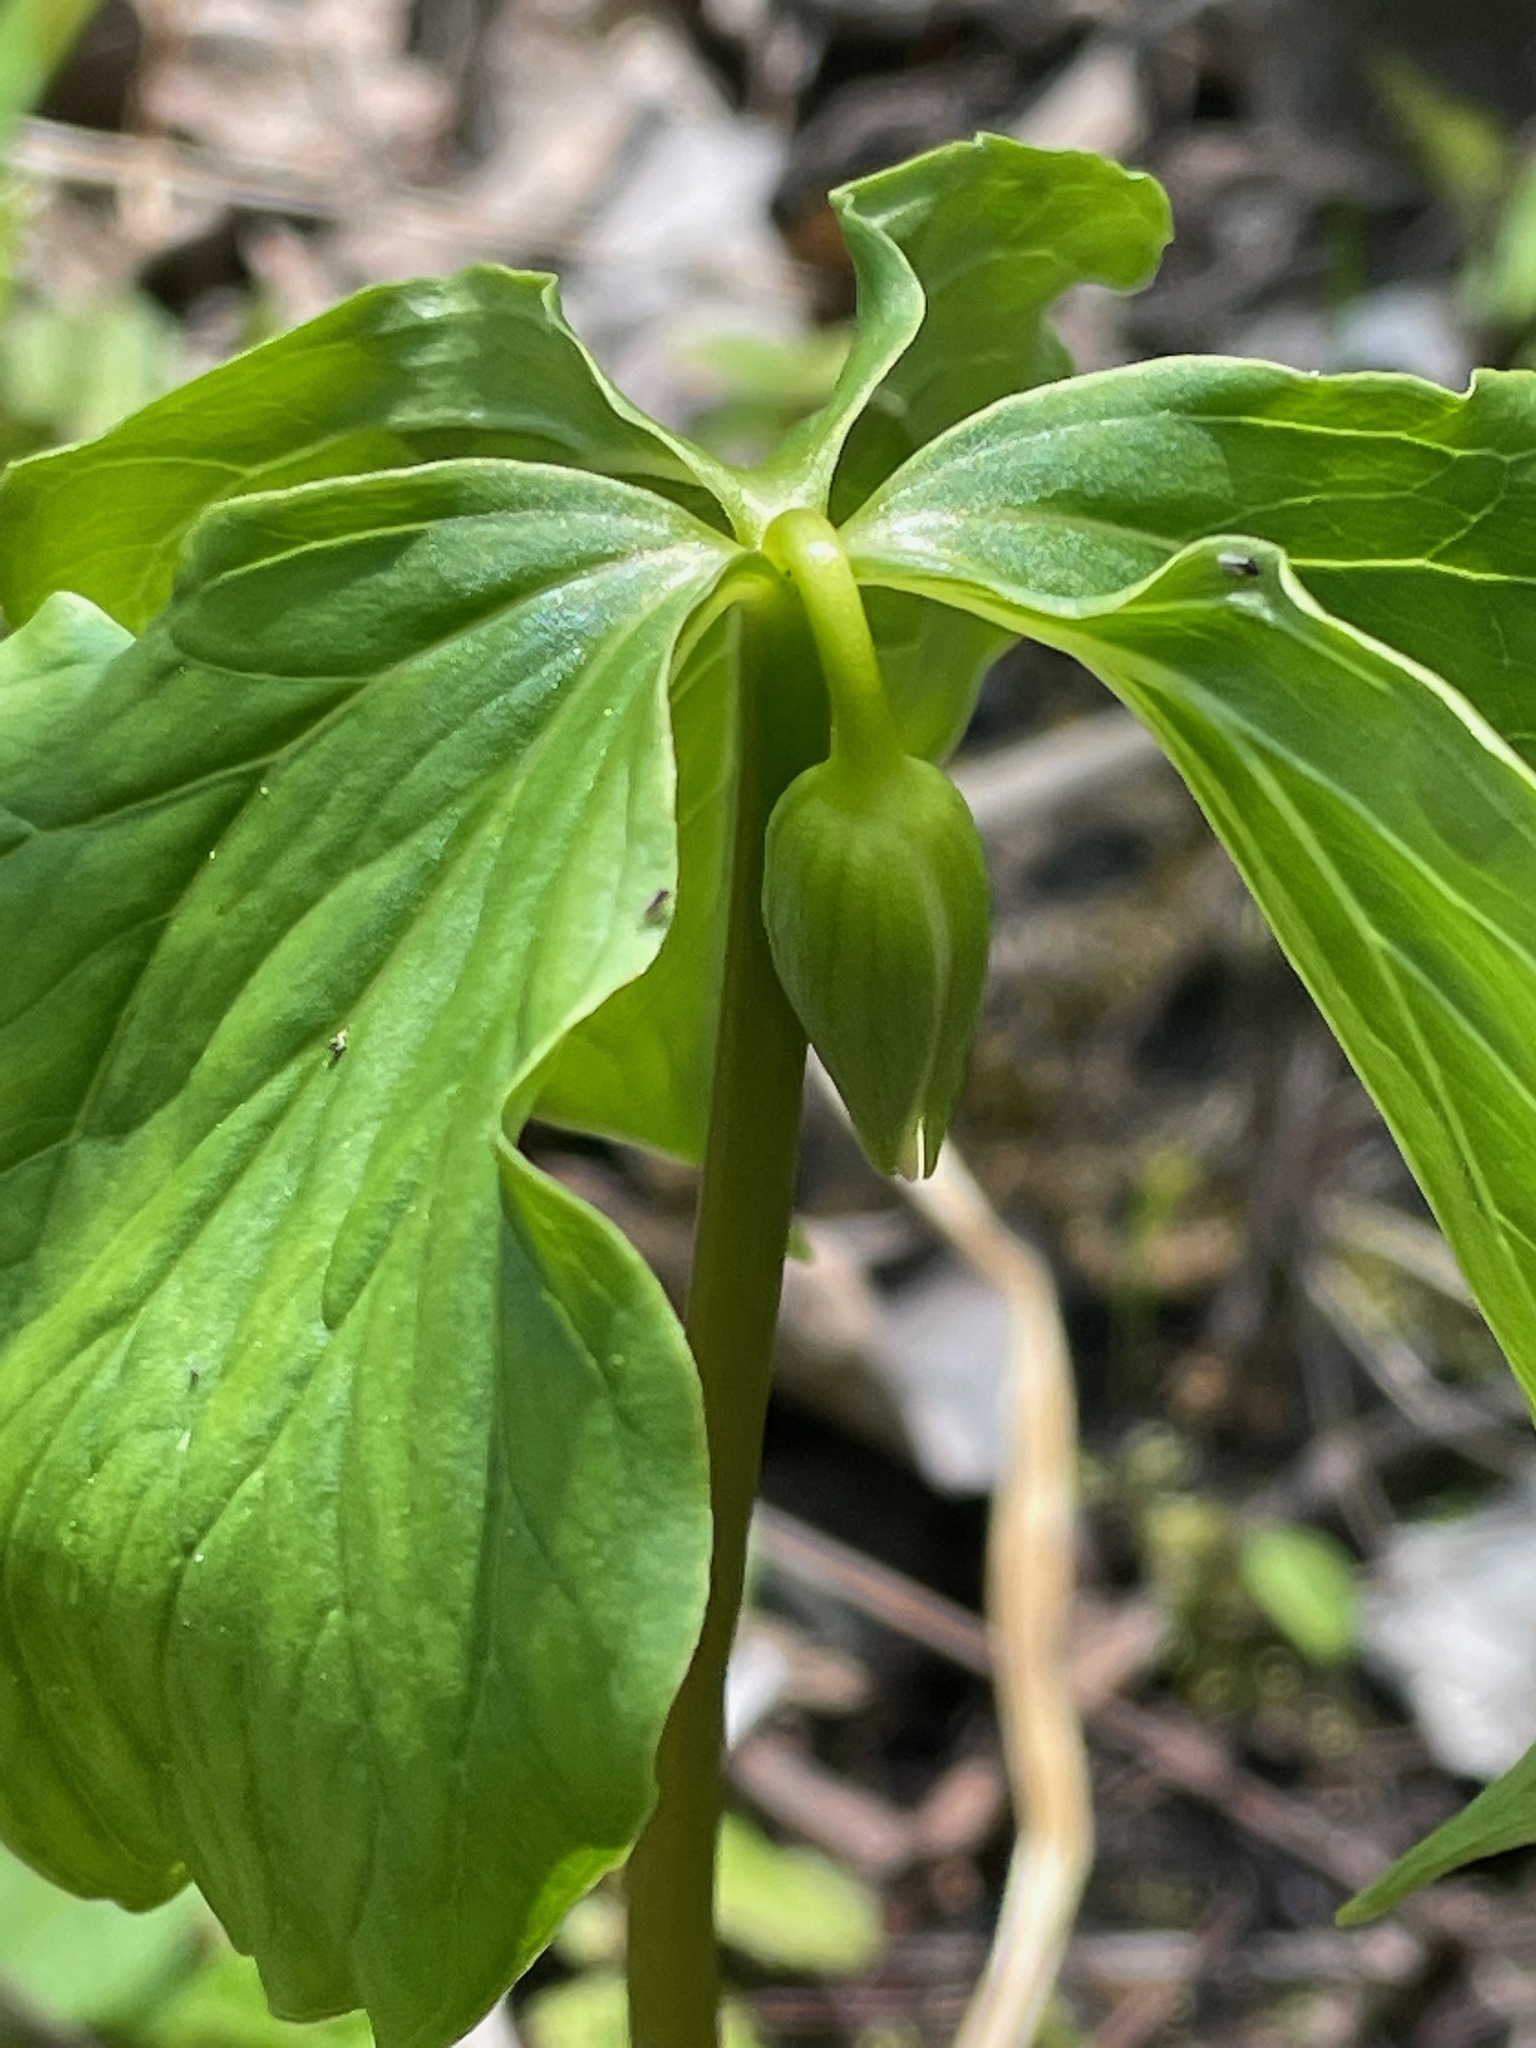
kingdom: Plantae
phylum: Tracheophyta
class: Liliopsida
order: Liliales
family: Melanthiaceae
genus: Trillium
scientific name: Trillium cernuum
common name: Nodding trillium
